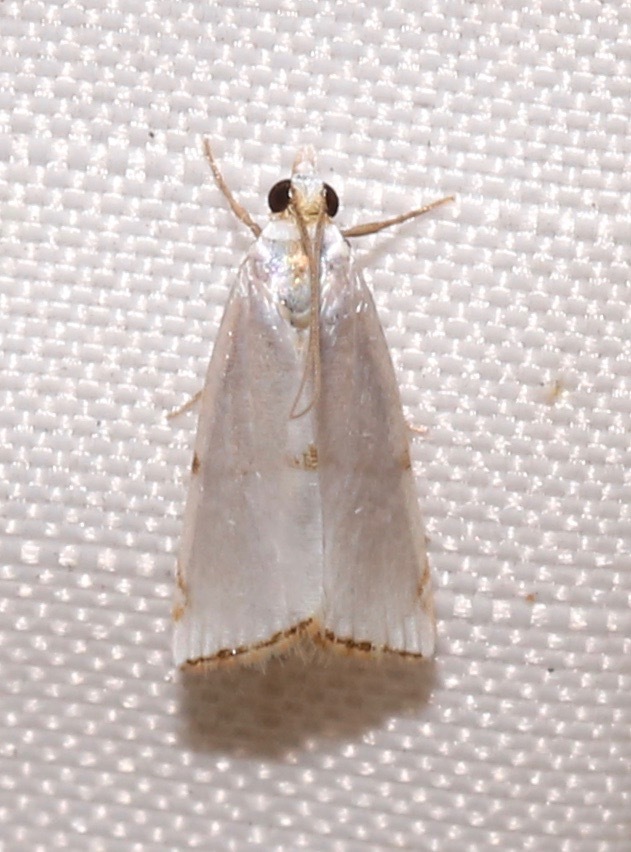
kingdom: Animalia
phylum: Arthropoda
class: Insecta
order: Lepidoptera
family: Crambidae
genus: Argyria
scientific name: Argyria pusillalis
